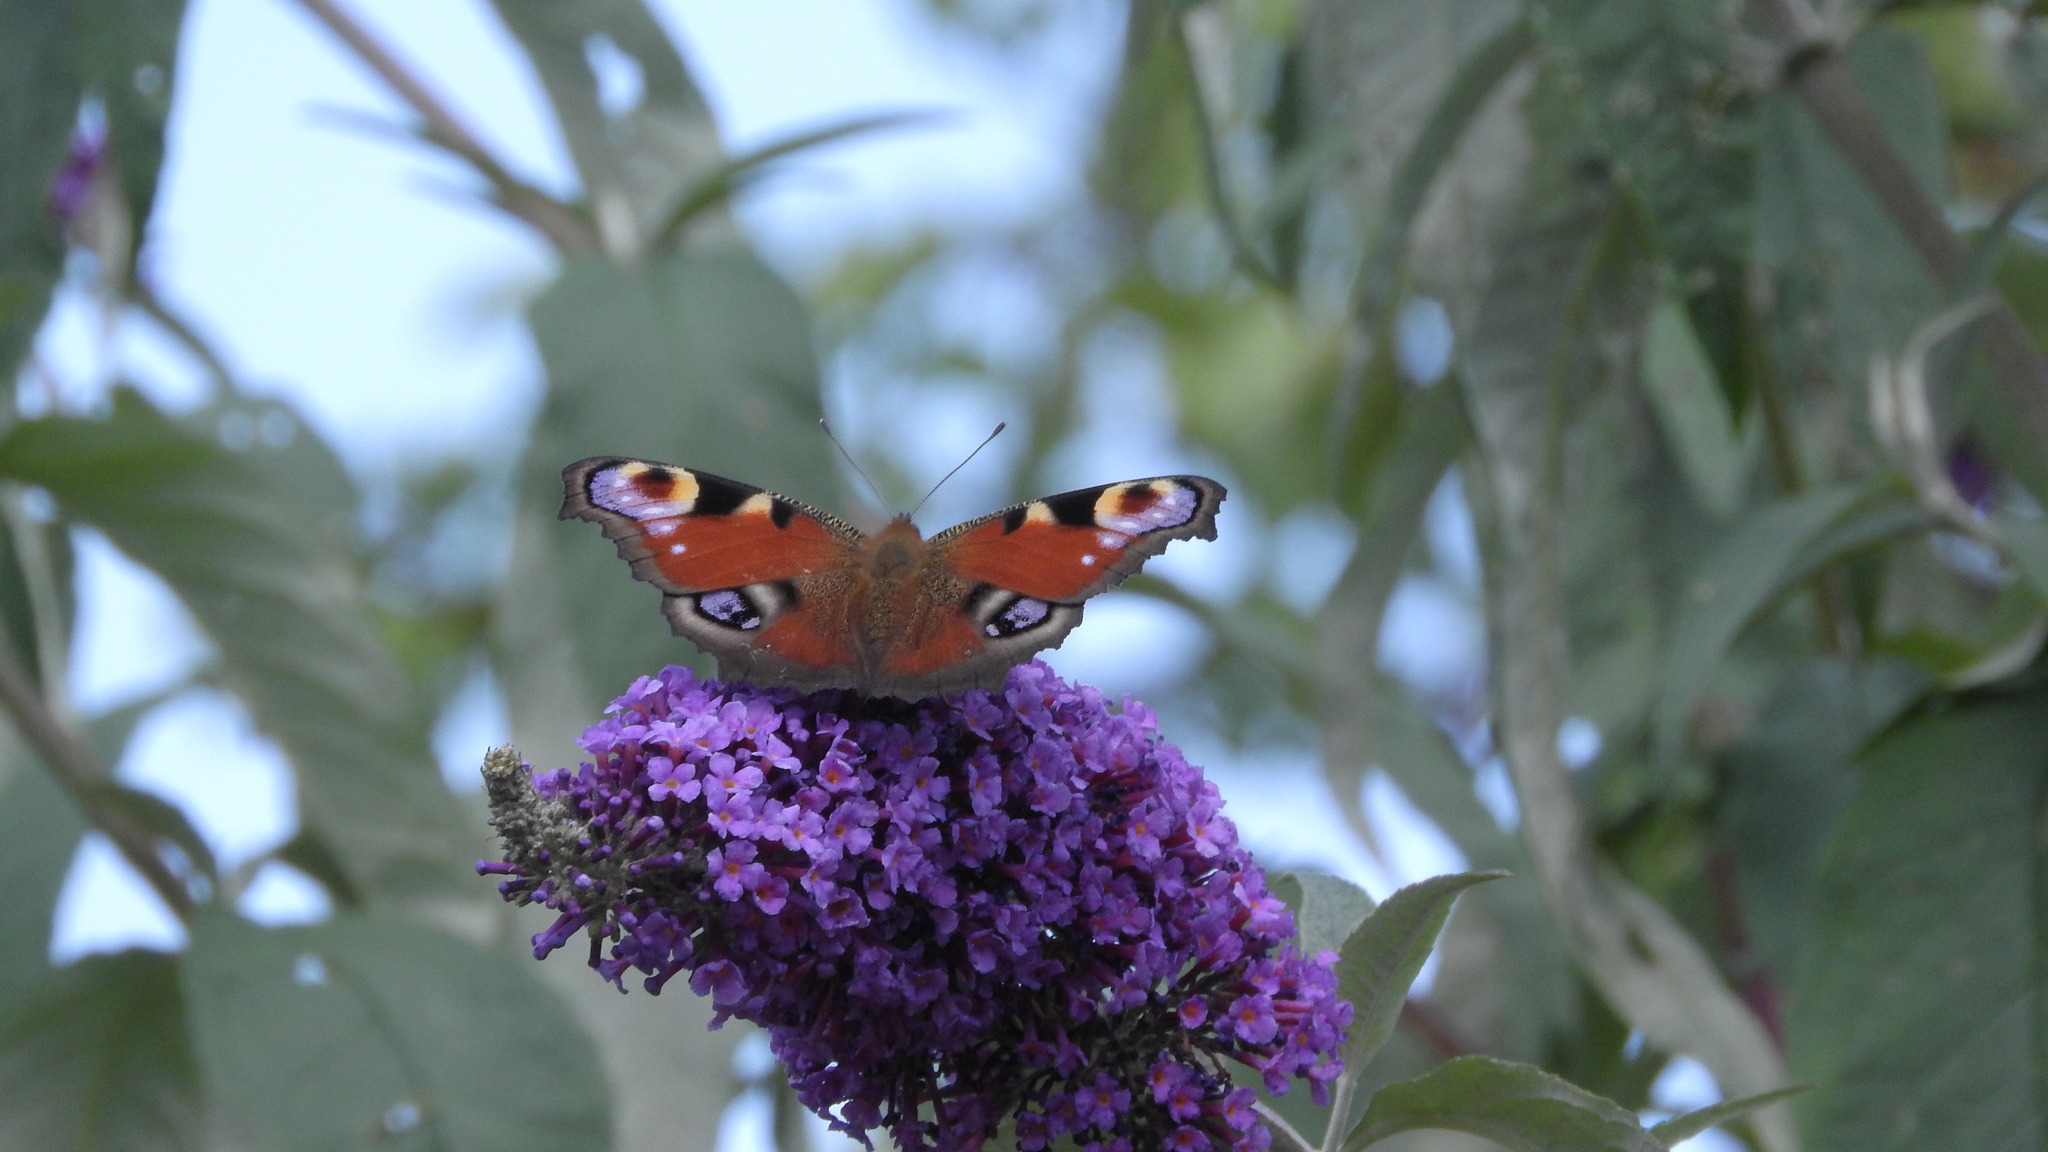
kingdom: Animalia
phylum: Arthropoda
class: Insecta
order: Lepidoptera
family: Nymphalidae
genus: Aglais
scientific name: Aglais io
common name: Peacock
